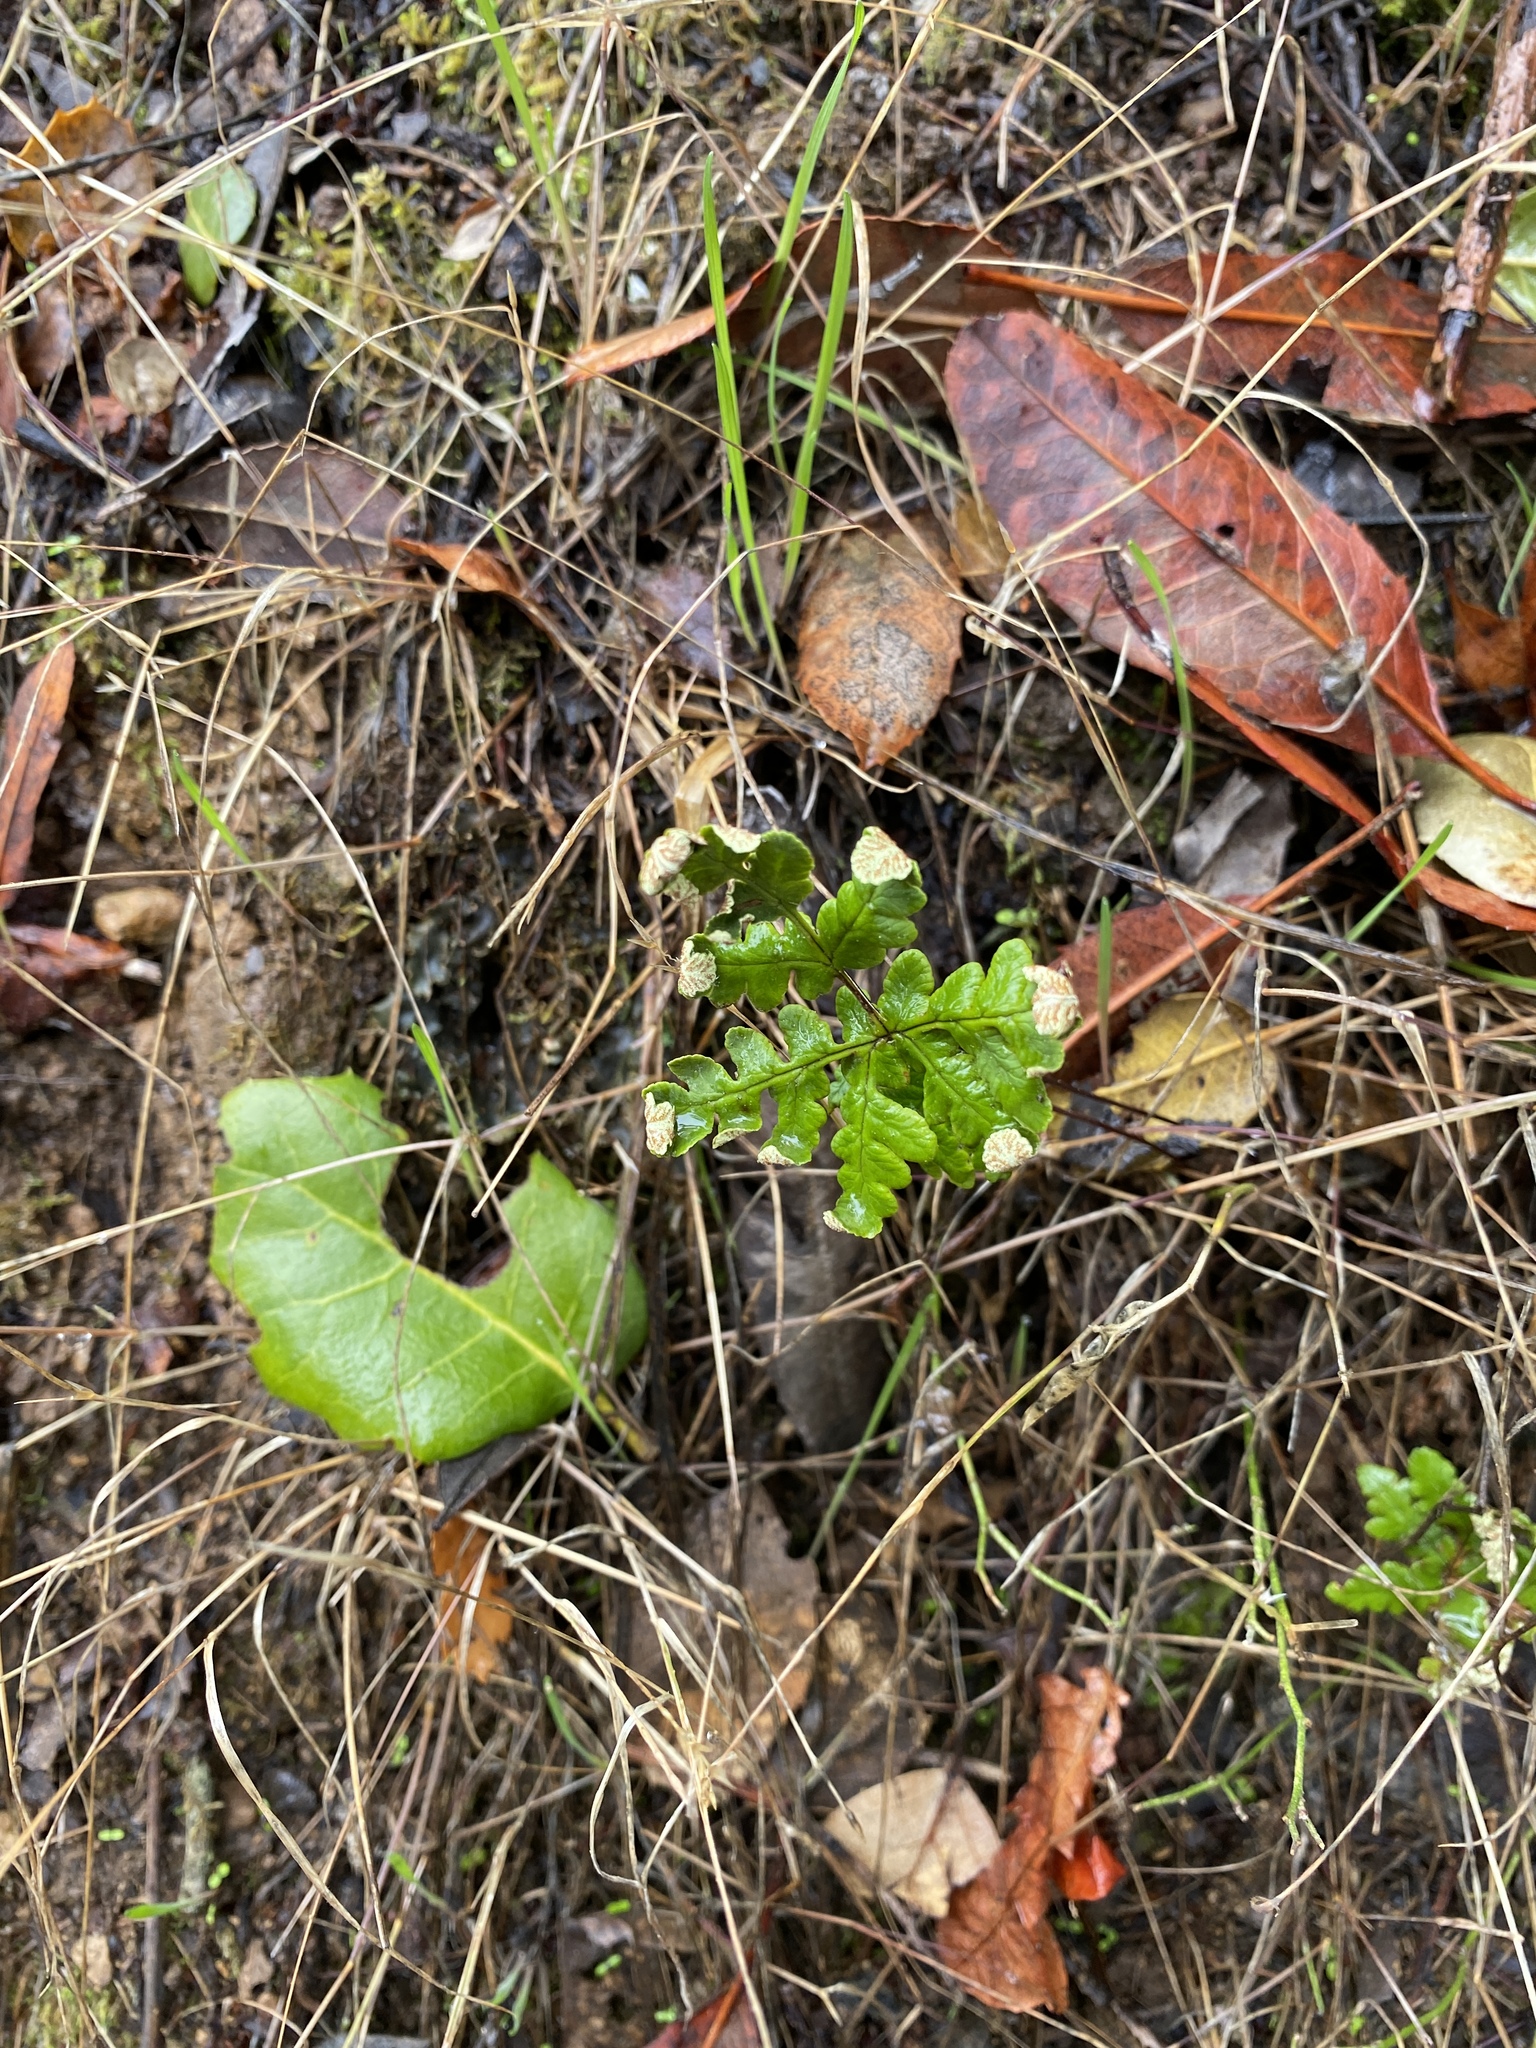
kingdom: Plantae
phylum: Tracheophyta
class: Polypodiopsida
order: Polypodiales
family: Pteridaceae
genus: Pentagramma
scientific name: Pentagramma triangularis
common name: Gold fern
